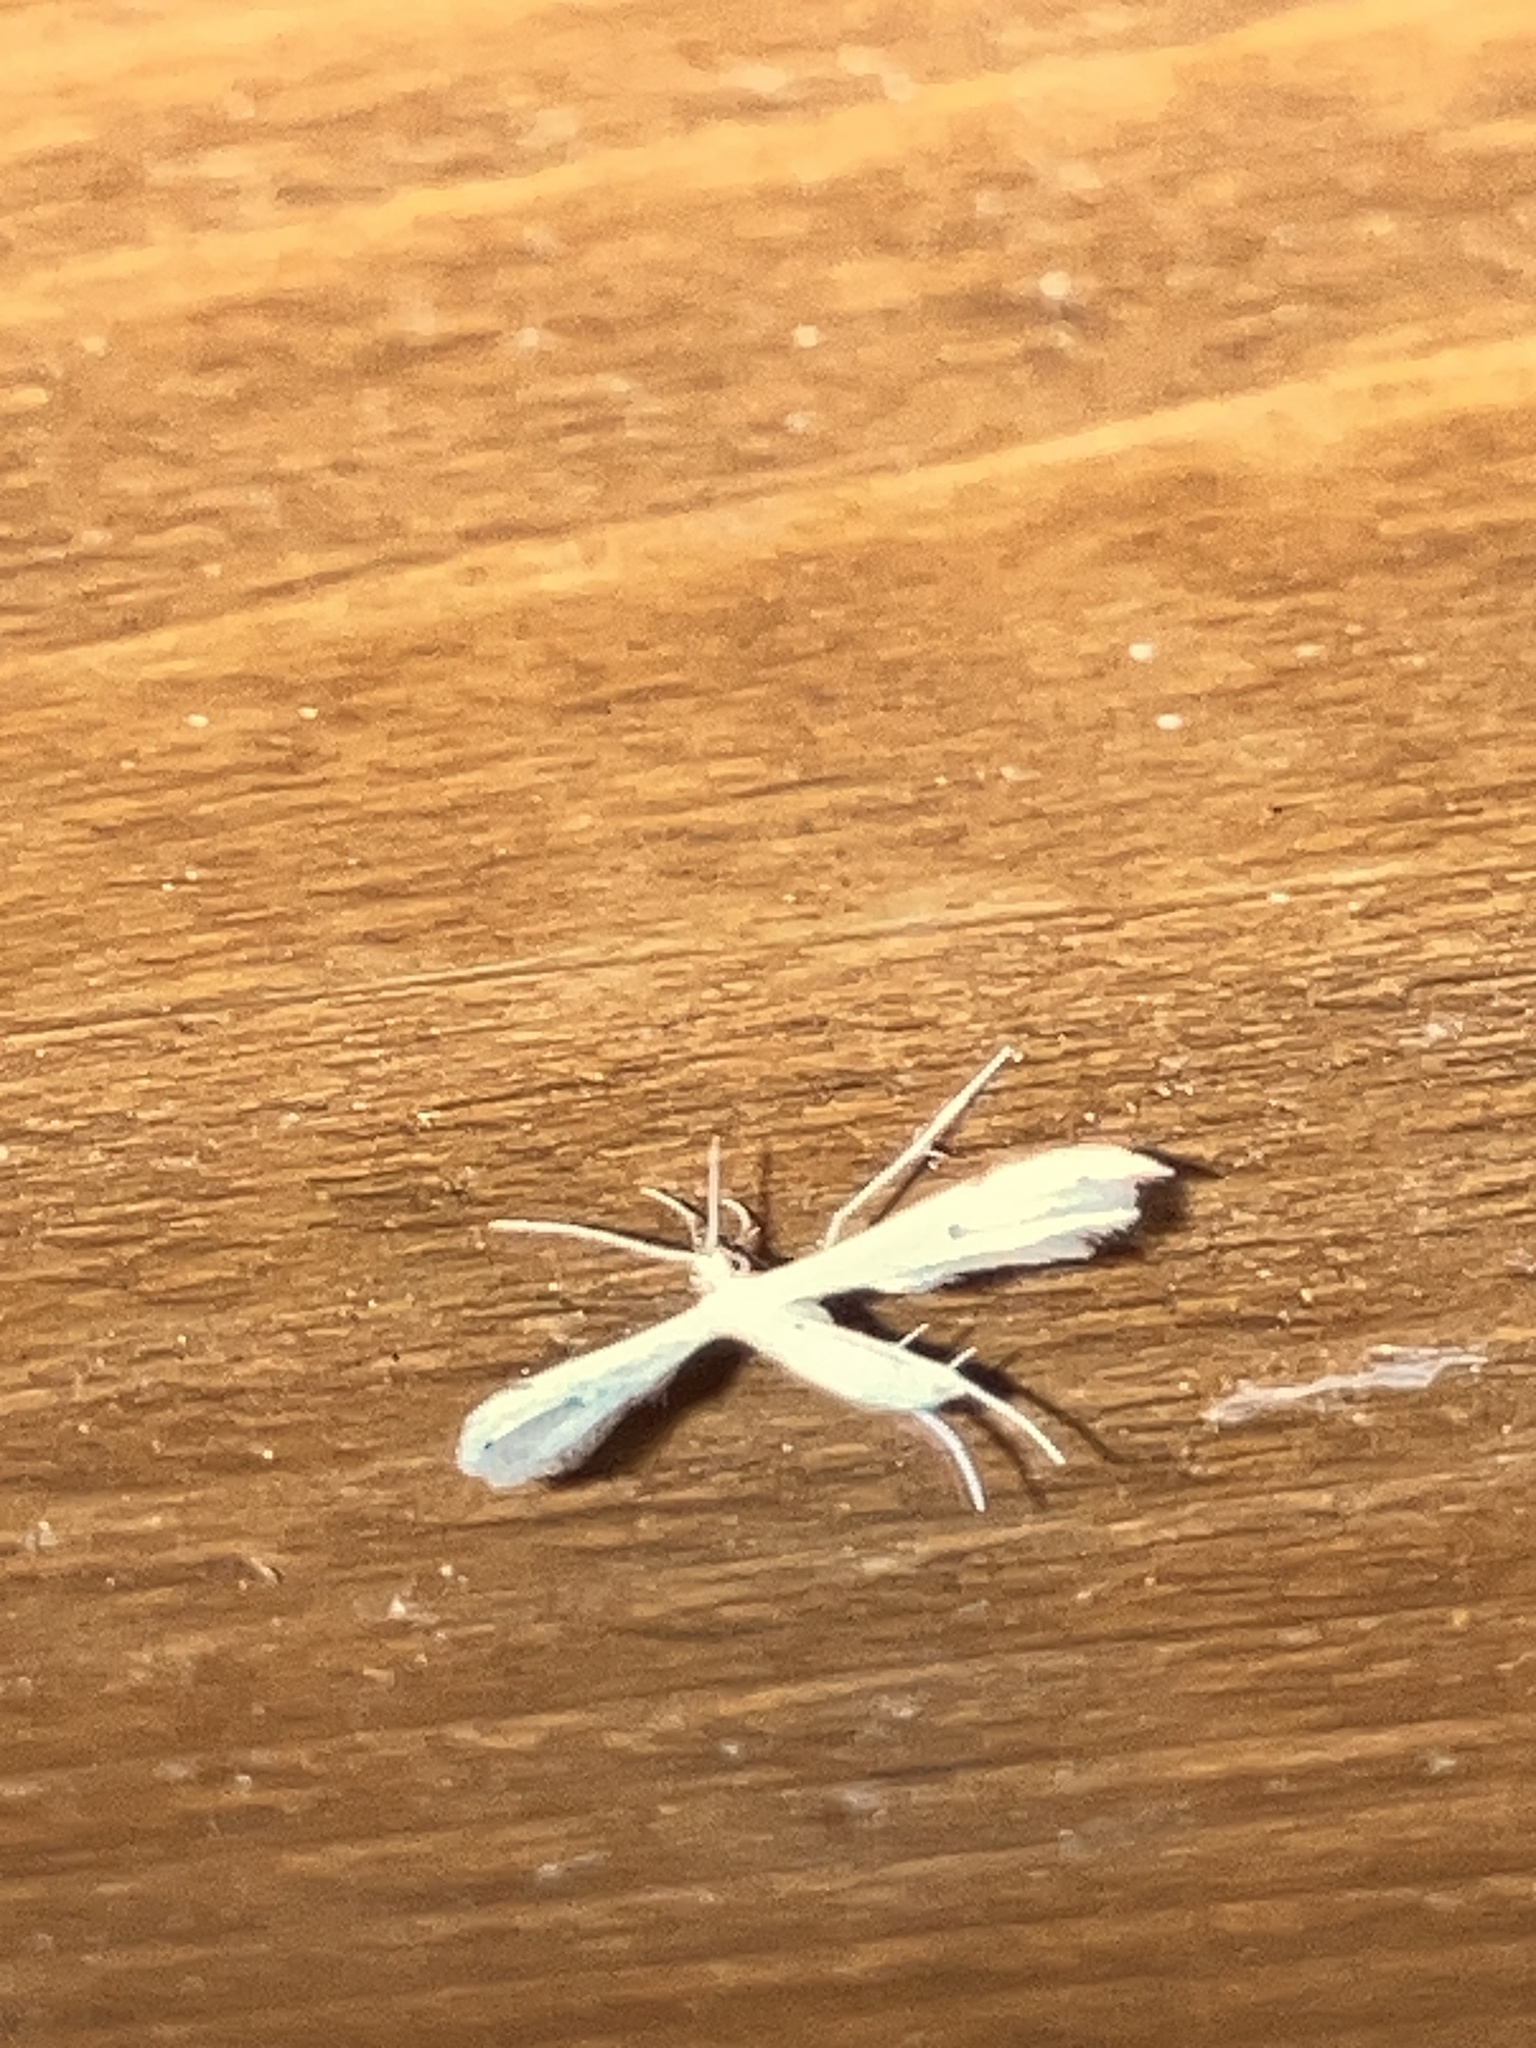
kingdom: Animalia
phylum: Arthropoda
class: Insecta
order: Lepidoptera
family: Pterophoridae
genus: Adaina
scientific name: Adaina
